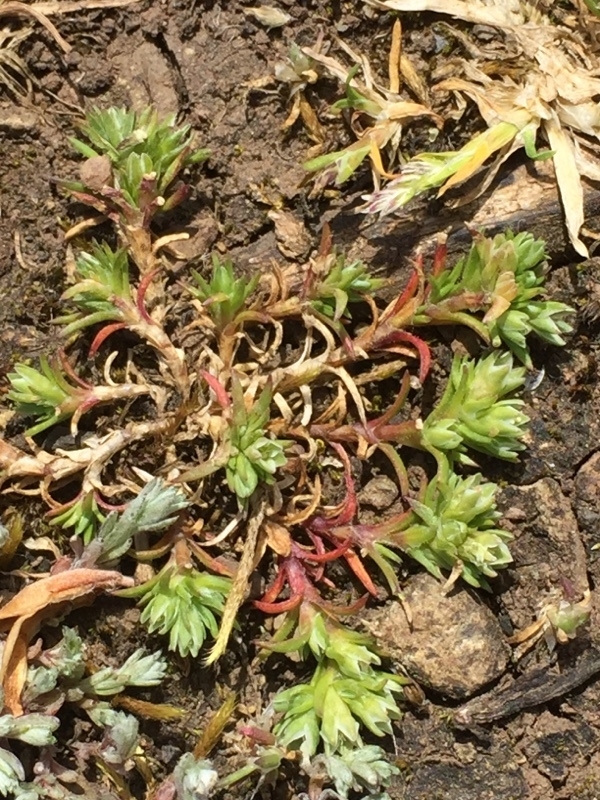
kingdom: Plantae
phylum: Tracheophyta
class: Magnoliopsida
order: Caryophyllales
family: Caryophyllaceae
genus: Scleranthus
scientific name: Scleranthus annuus
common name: Annual knawel
